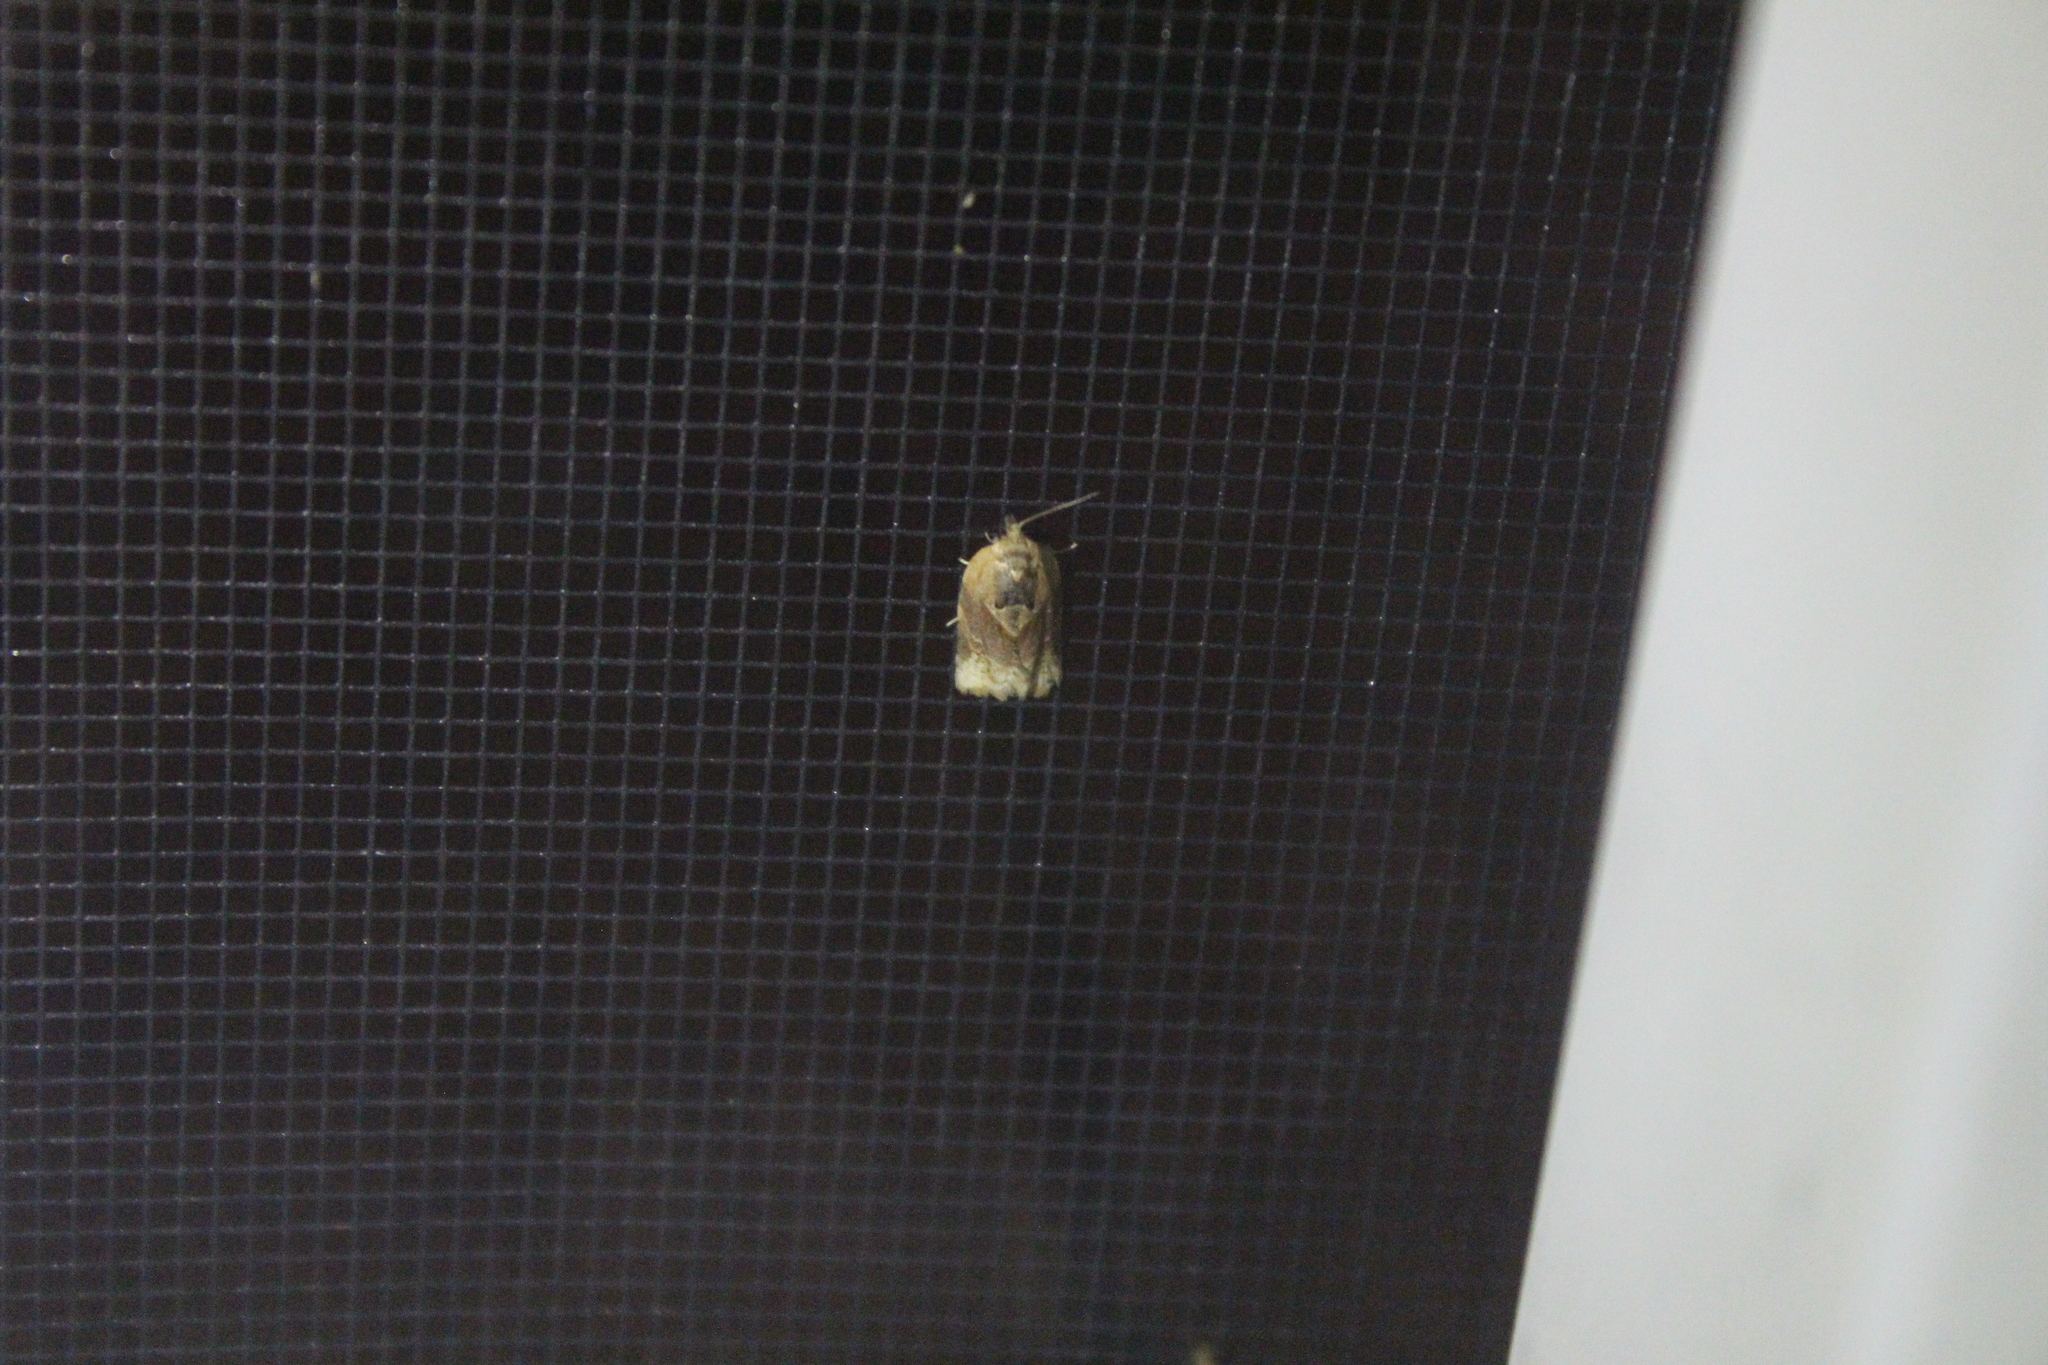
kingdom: Animalia
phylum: Arthropoda
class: Insecta
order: Lepidoptera
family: Tortricidae
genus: Argyrotaenia
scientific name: Argyrotaenia velutinana
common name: Red-banded leafroller moth
